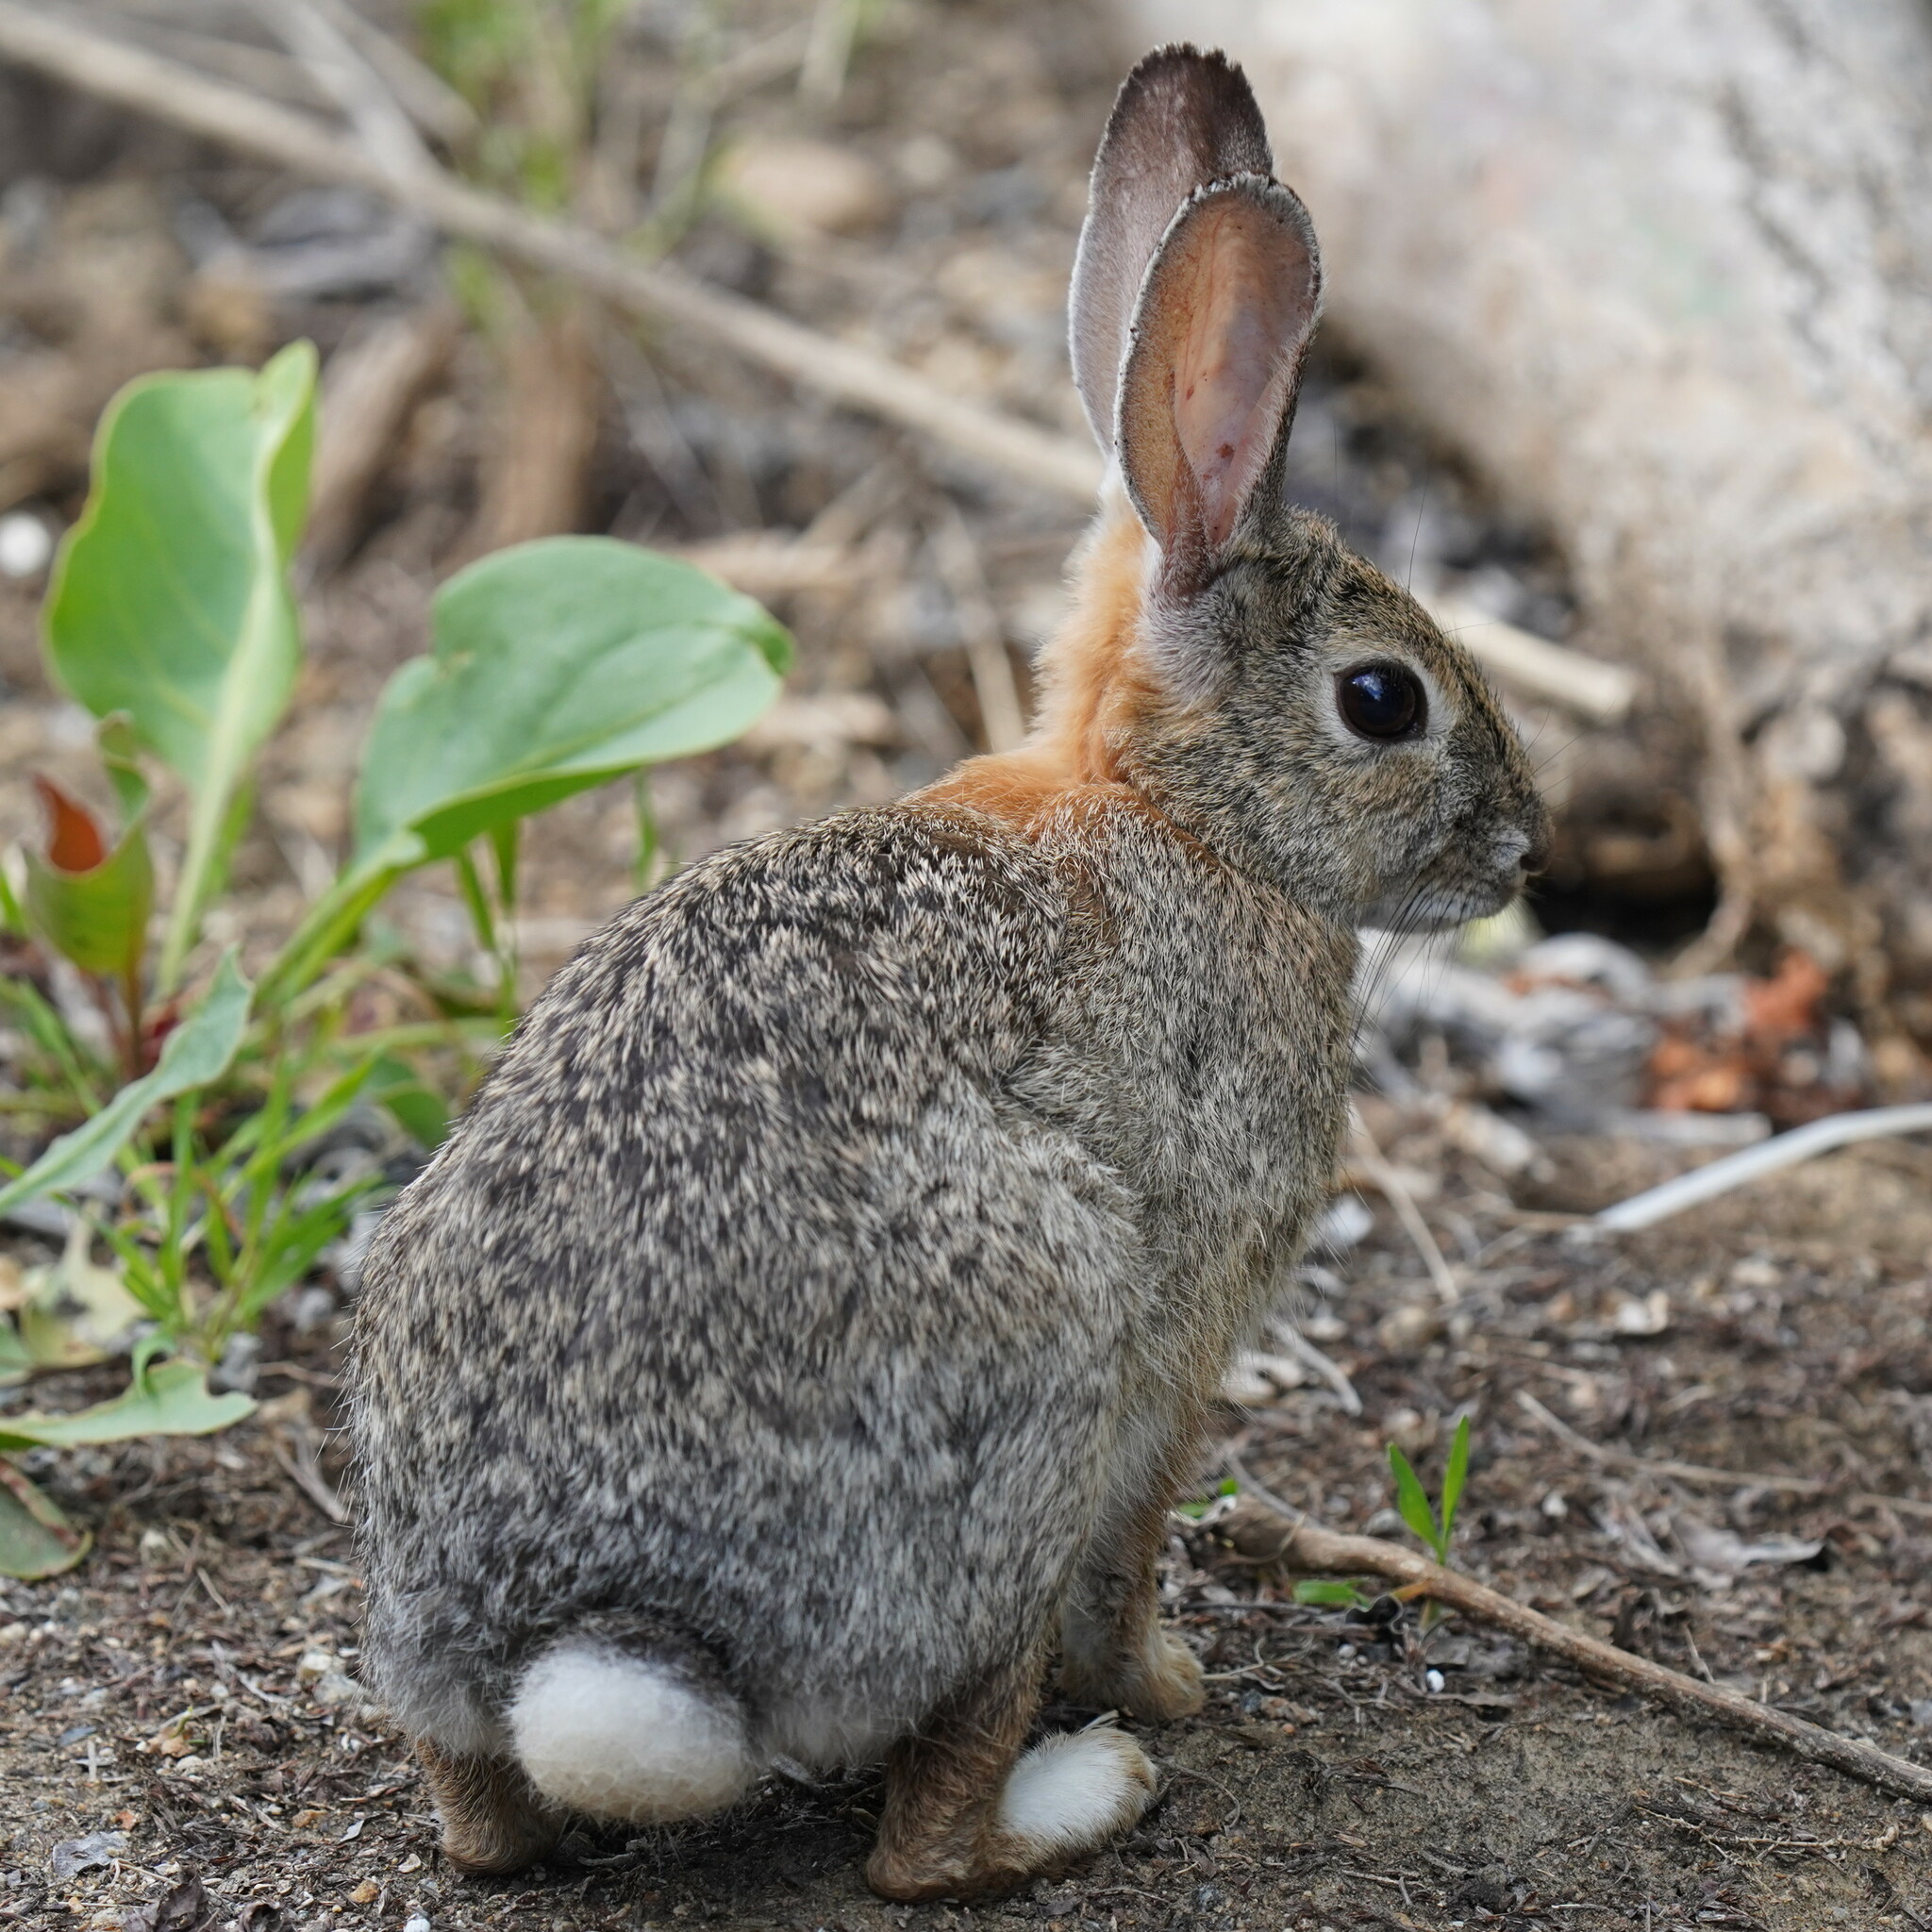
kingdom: Animalia
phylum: Chordata
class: Mammalia
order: Lagomorpha
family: Leporidae
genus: Sylvilagus
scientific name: Sylvilagus audubonii
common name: Desert cottontail
